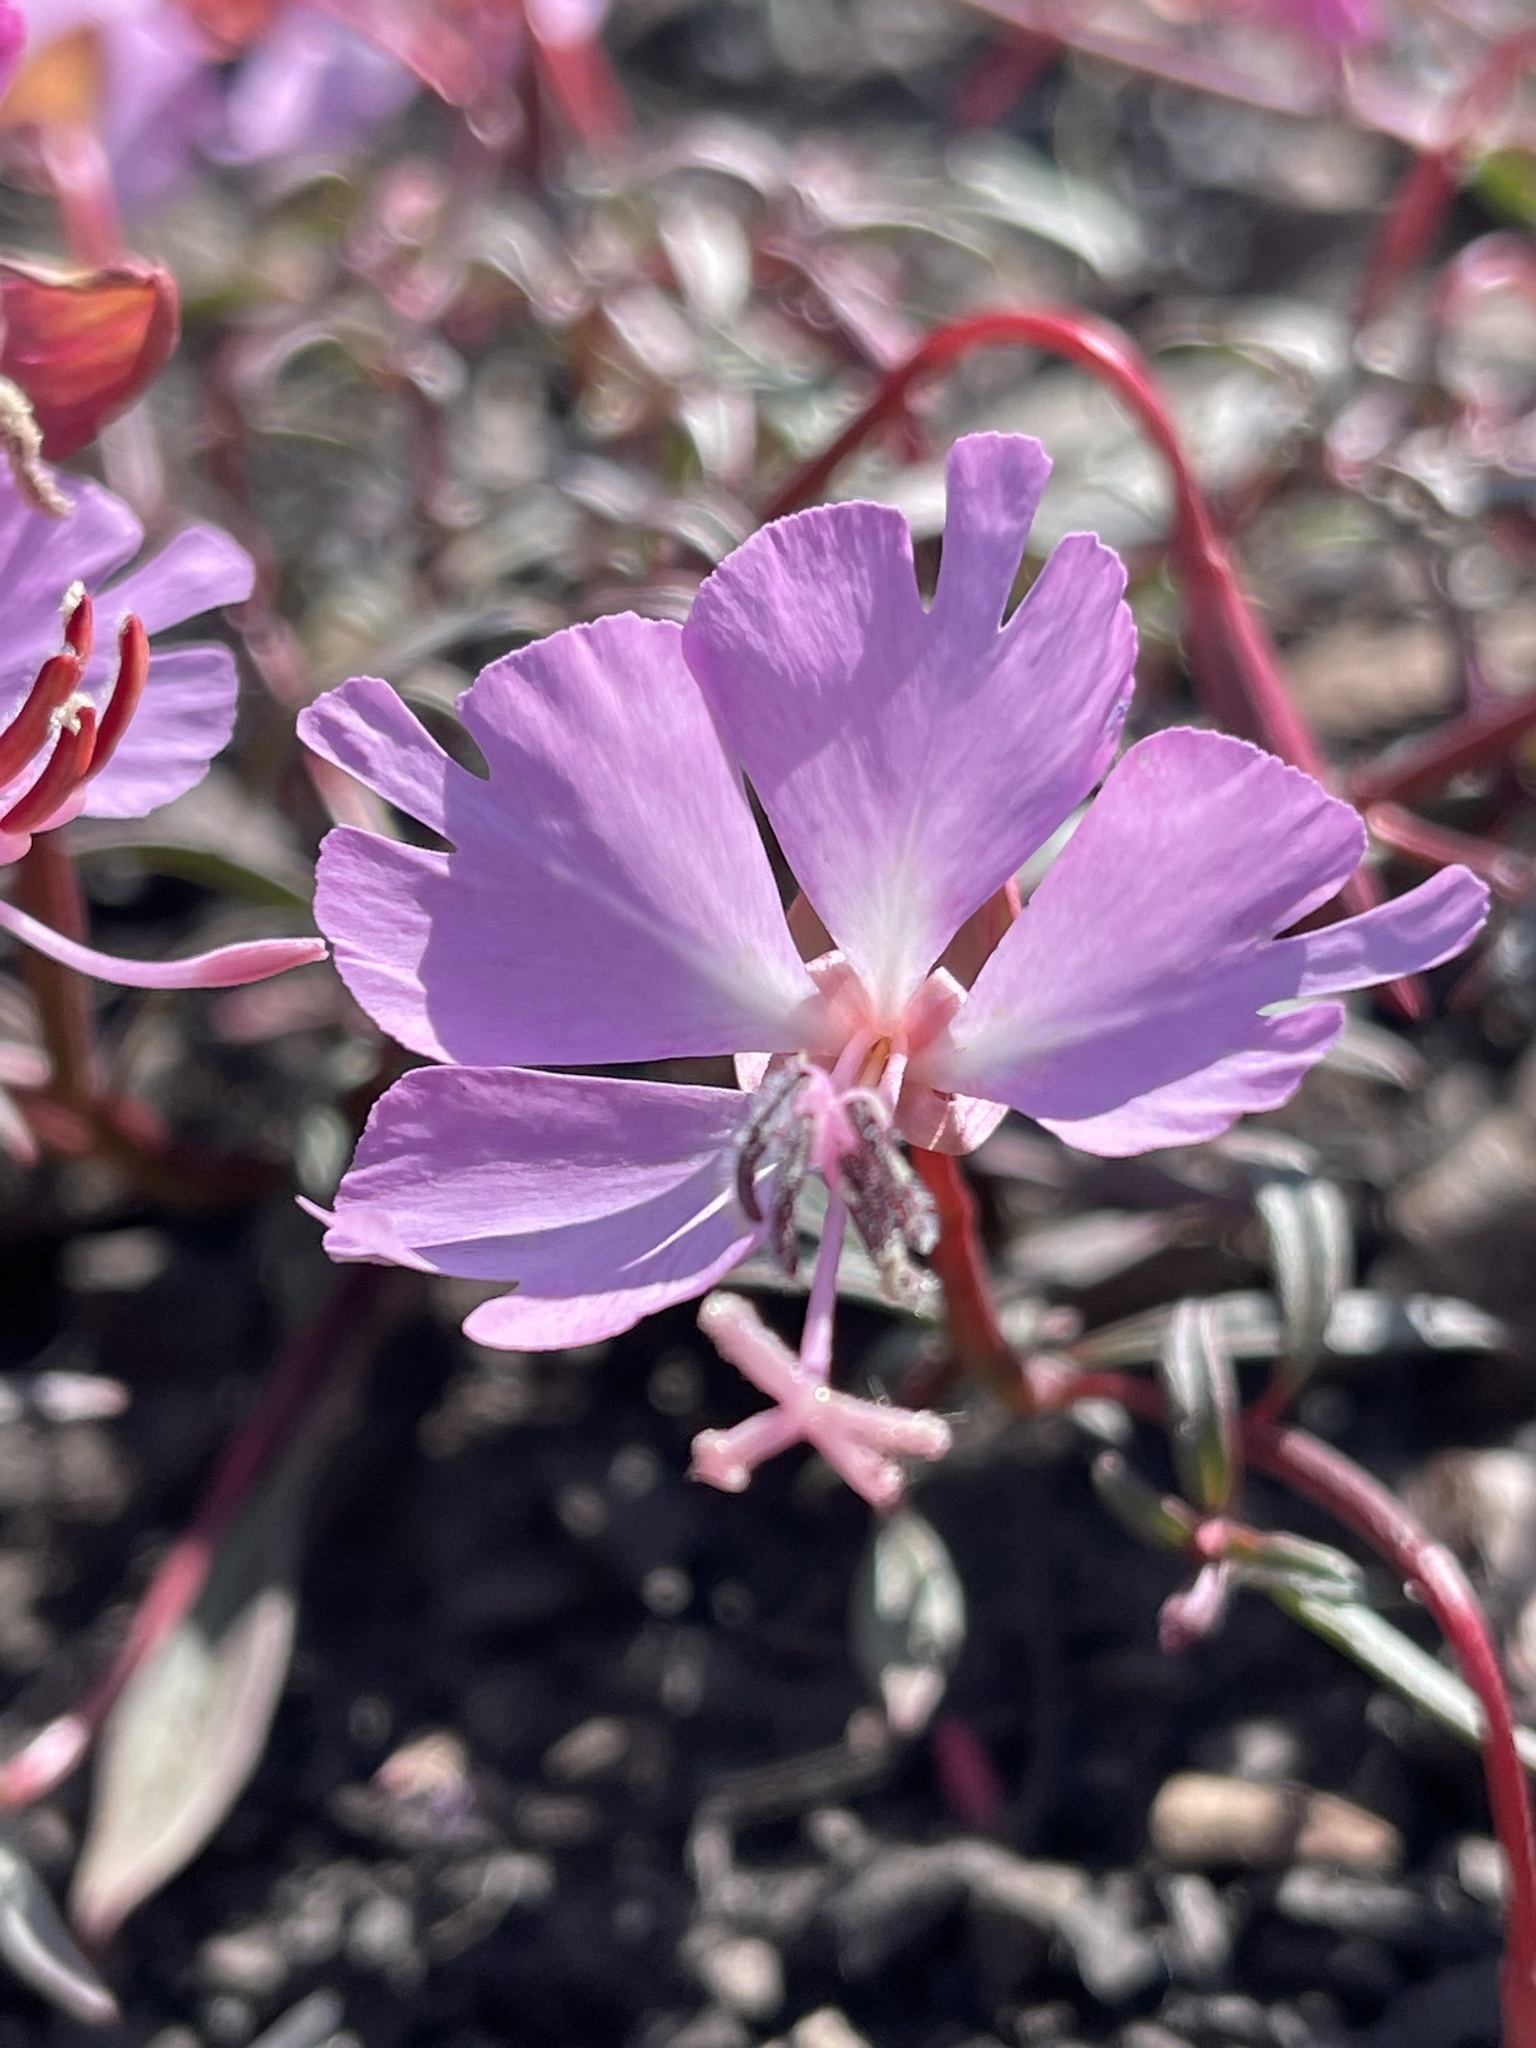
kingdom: Plantae
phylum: Tracheophyta
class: Magnoliopsida
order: Myrtales
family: Onagraceae
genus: Clarkia
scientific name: Clarkia breweri
